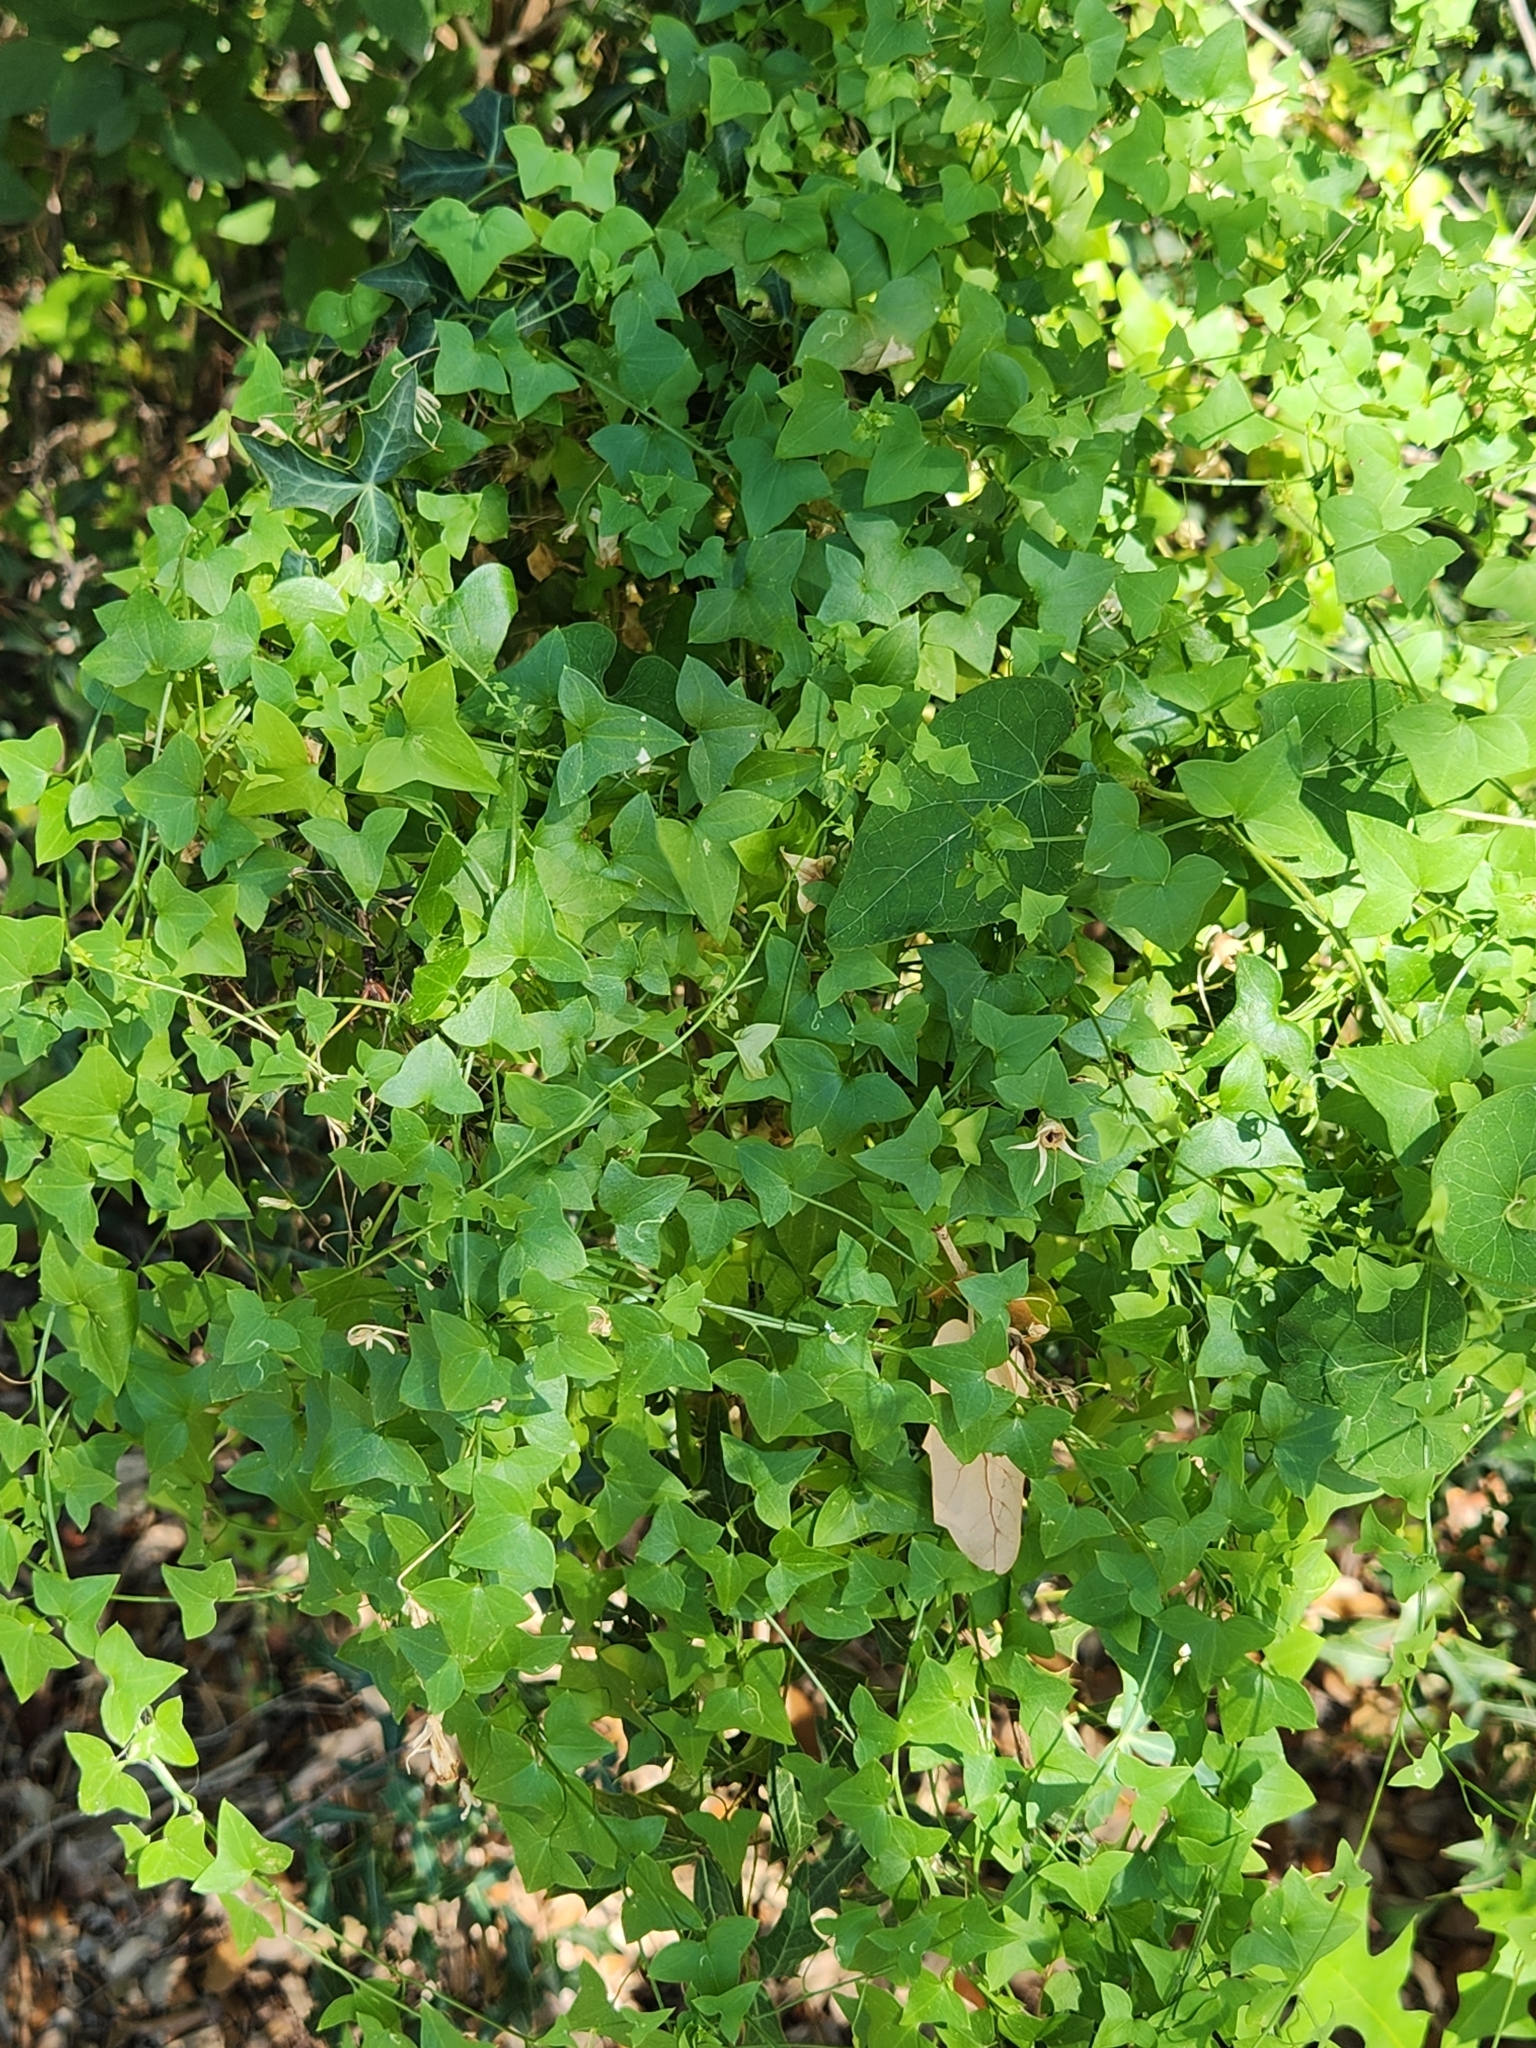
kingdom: Plantae
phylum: Tracheophyta
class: Magnoliopsida
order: Lamiales
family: Plantaginaceae
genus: Maurandella
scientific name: Maurandella antirrhiniflora
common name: Violet twining-snapdragon
